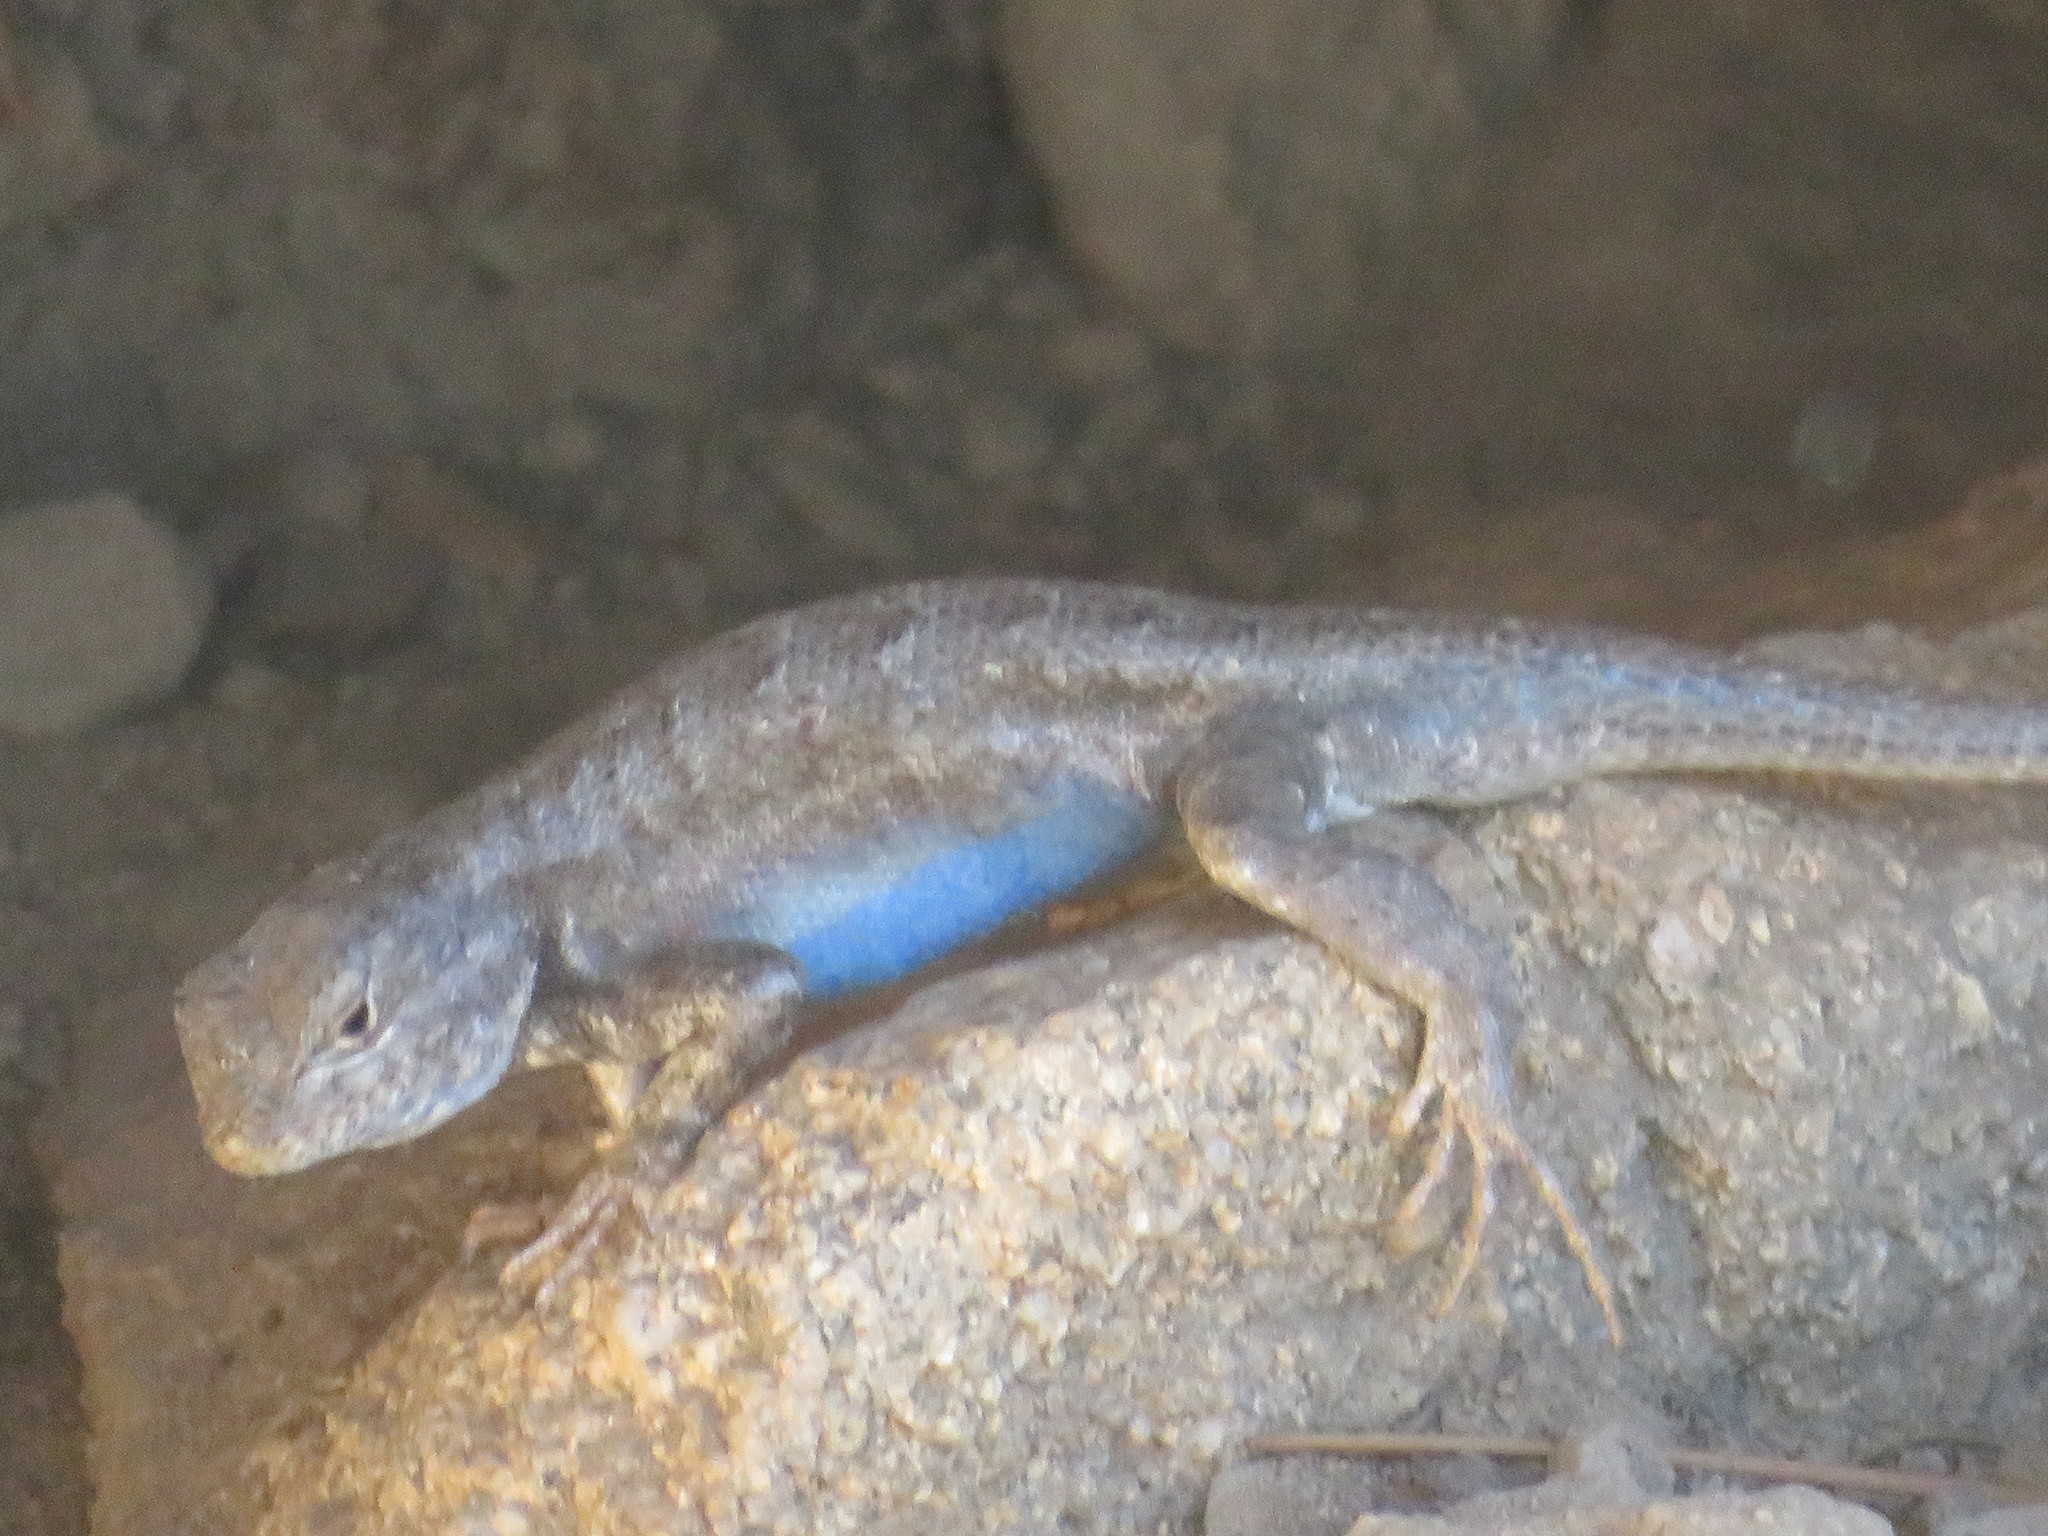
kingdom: Animalia
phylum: Chordata
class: Squamata
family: Phrynosomatidae
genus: Sceloporus
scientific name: Sceloporus graciosus
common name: Sagebrush lizard
